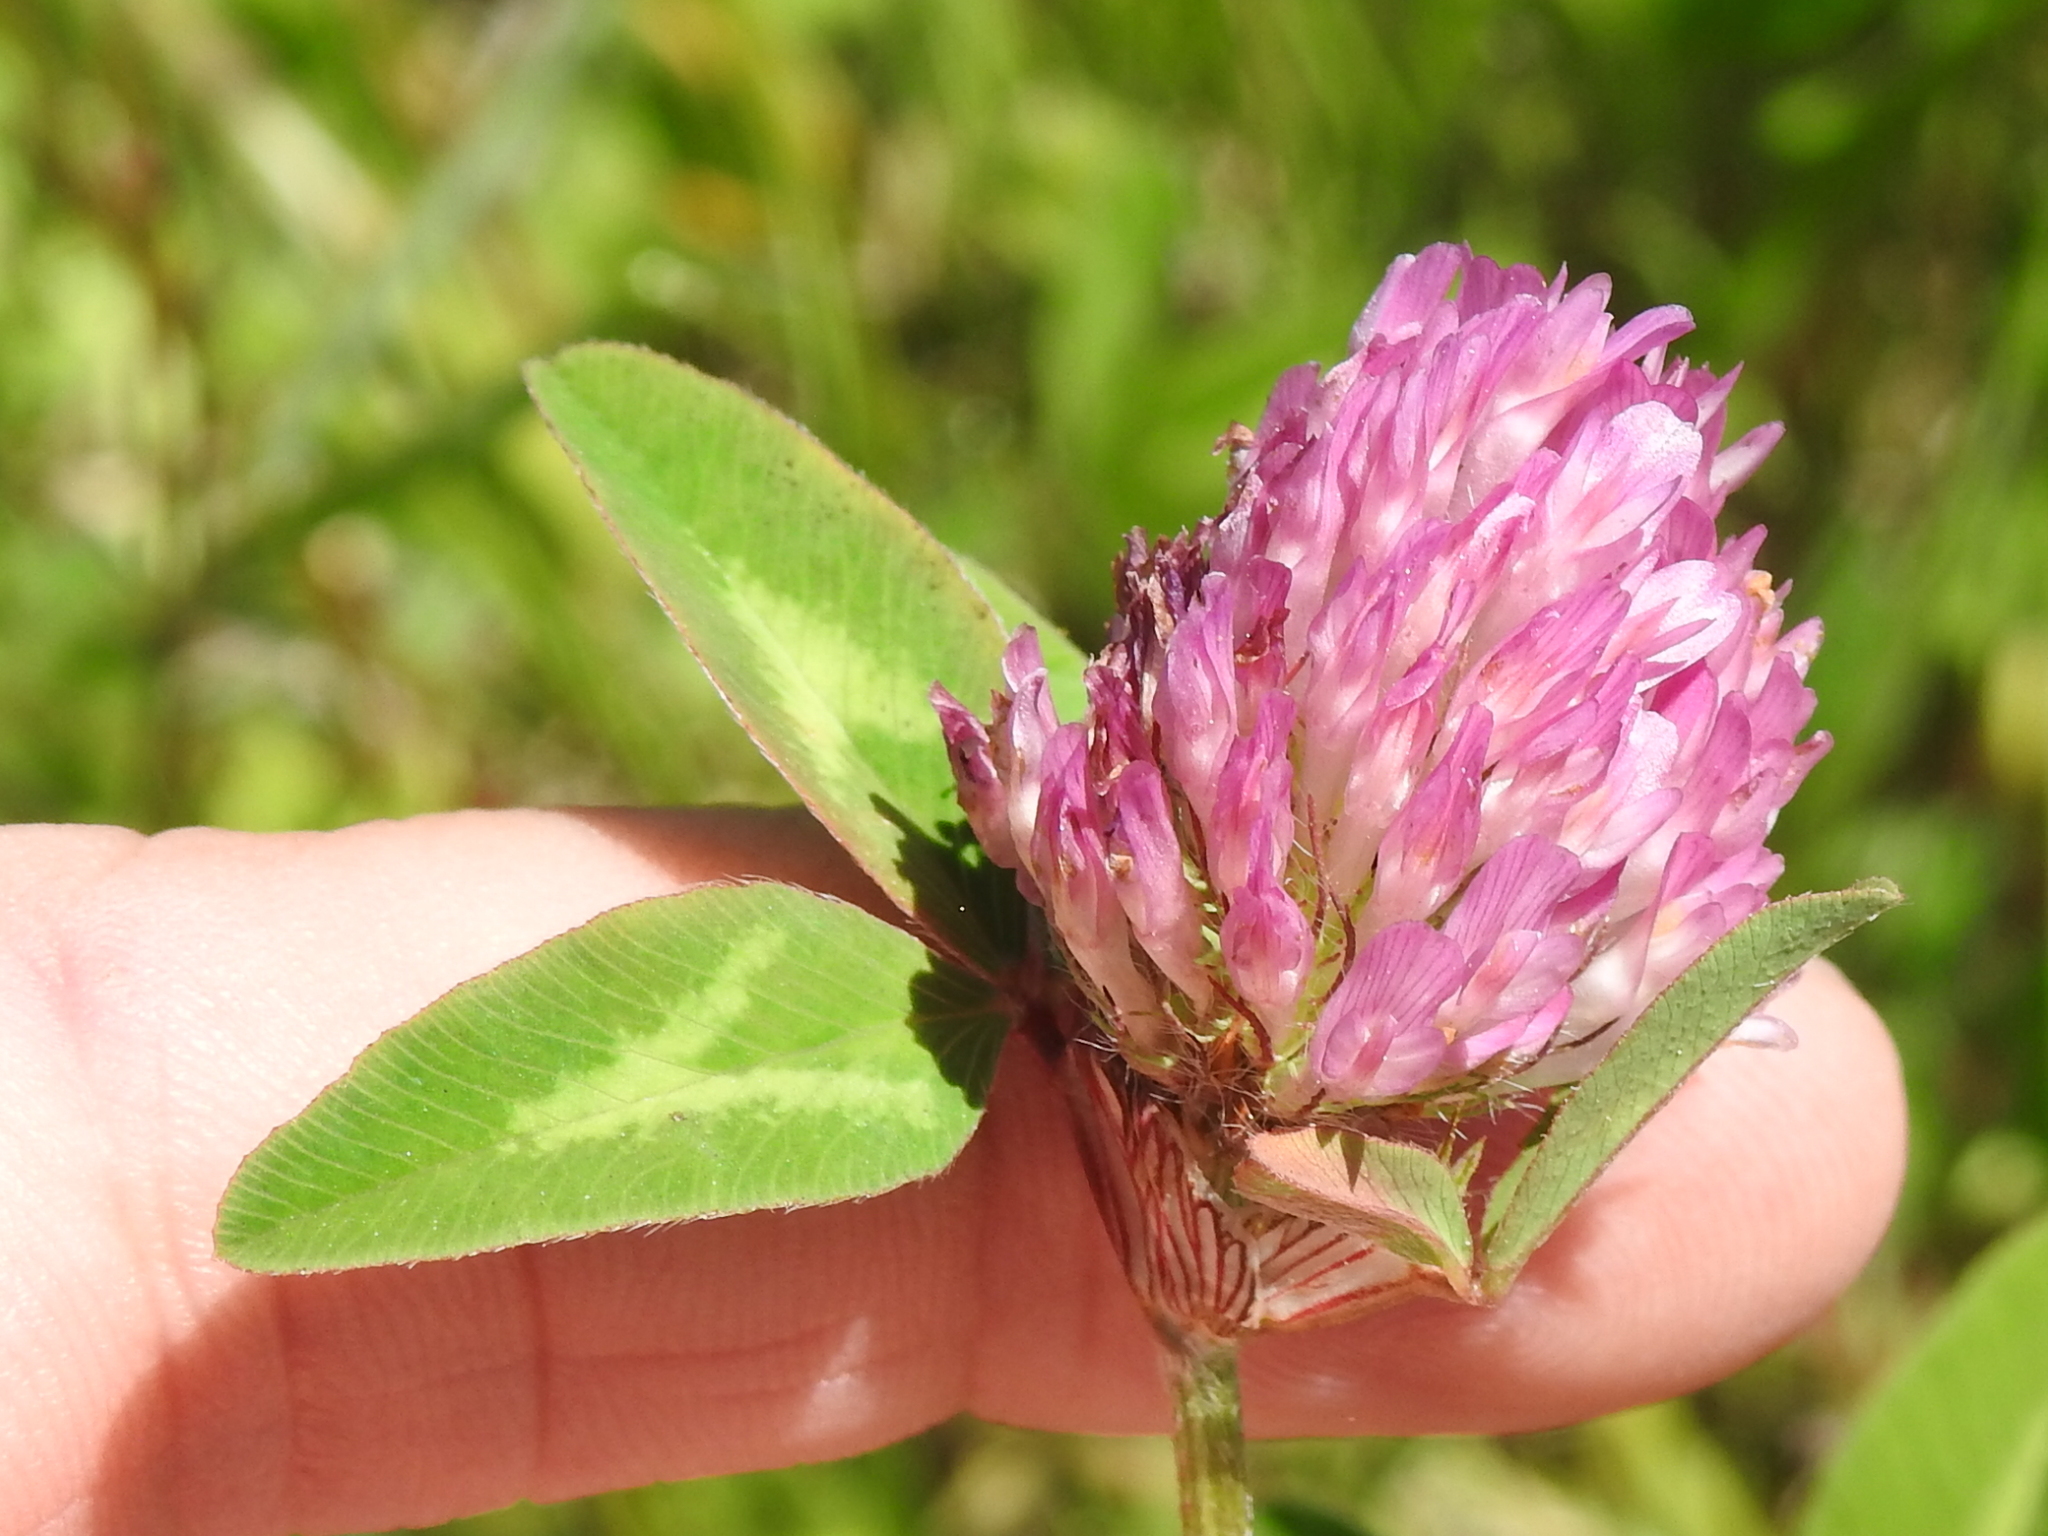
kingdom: Plantae
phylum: Tracheophyta
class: Magnoliopsida
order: Fabales
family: Fabaceae
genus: Trifolium
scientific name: Trifolium pratense
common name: Red clover
